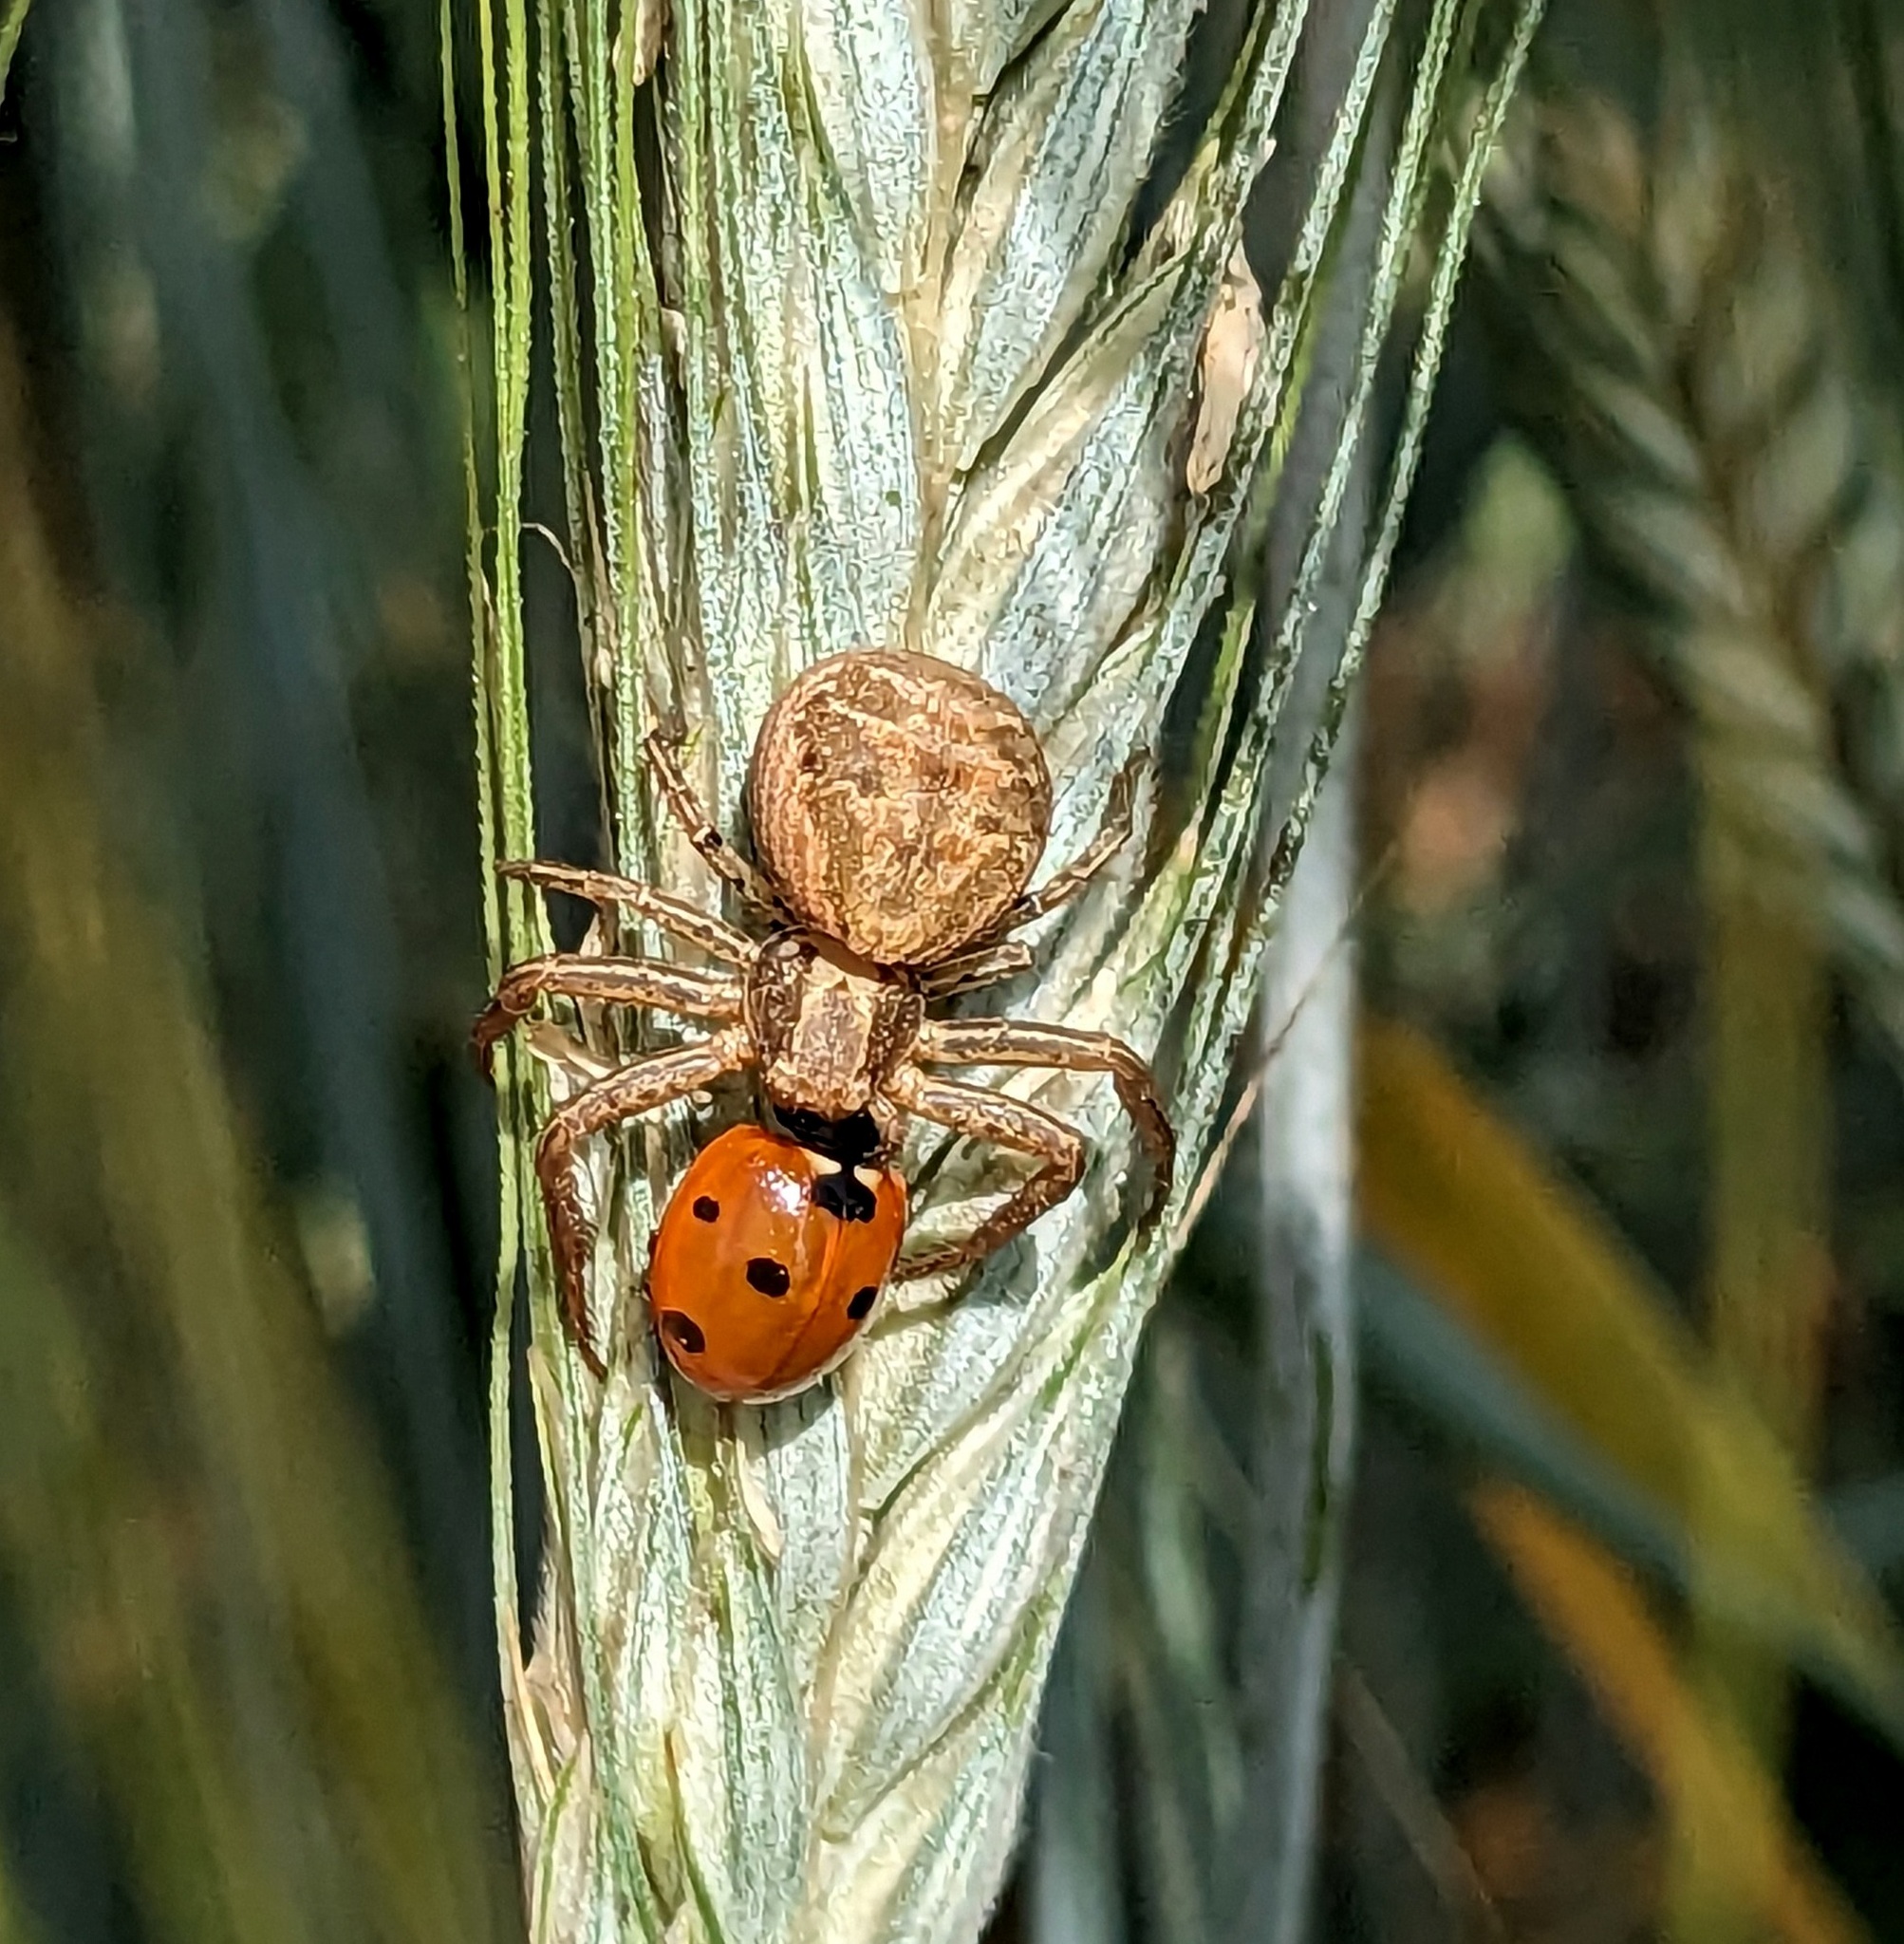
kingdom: Animalia
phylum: Arthropoda
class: Arachnida
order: Araneae
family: Thomisidae
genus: Xysticus
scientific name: Xysticus
